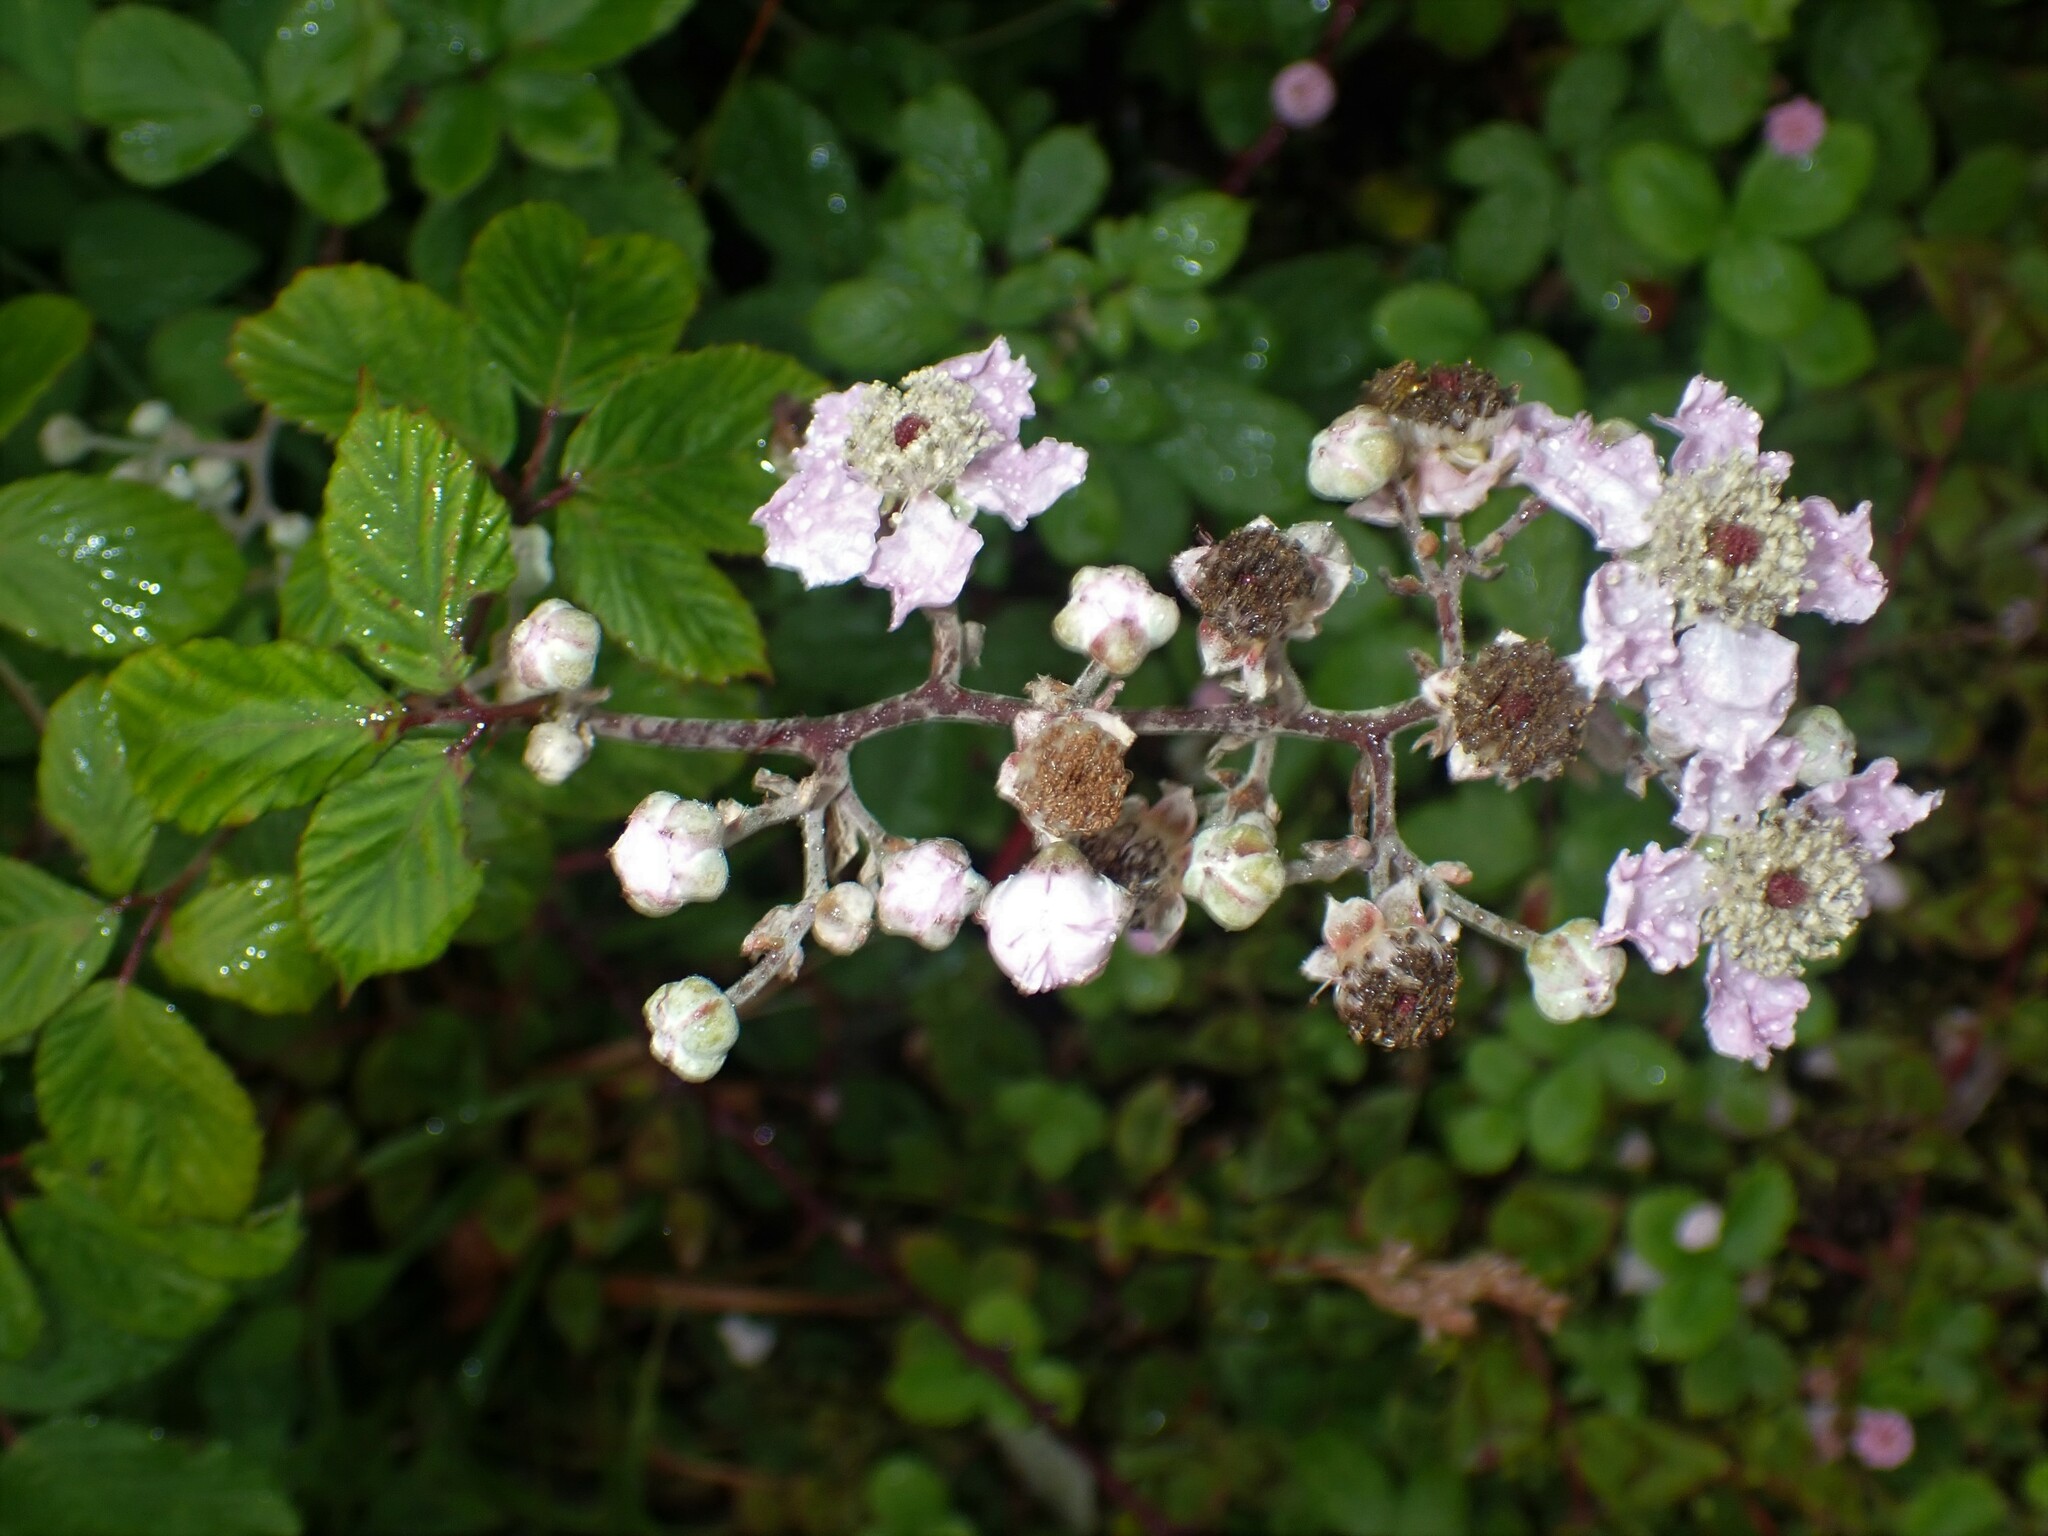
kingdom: Plantae
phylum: Tracheophyta
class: Magnoliopsida
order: Rosales
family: Rosaceae
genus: Rubus
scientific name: Rubus ulmifolius
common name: Elmleaf blackberry
